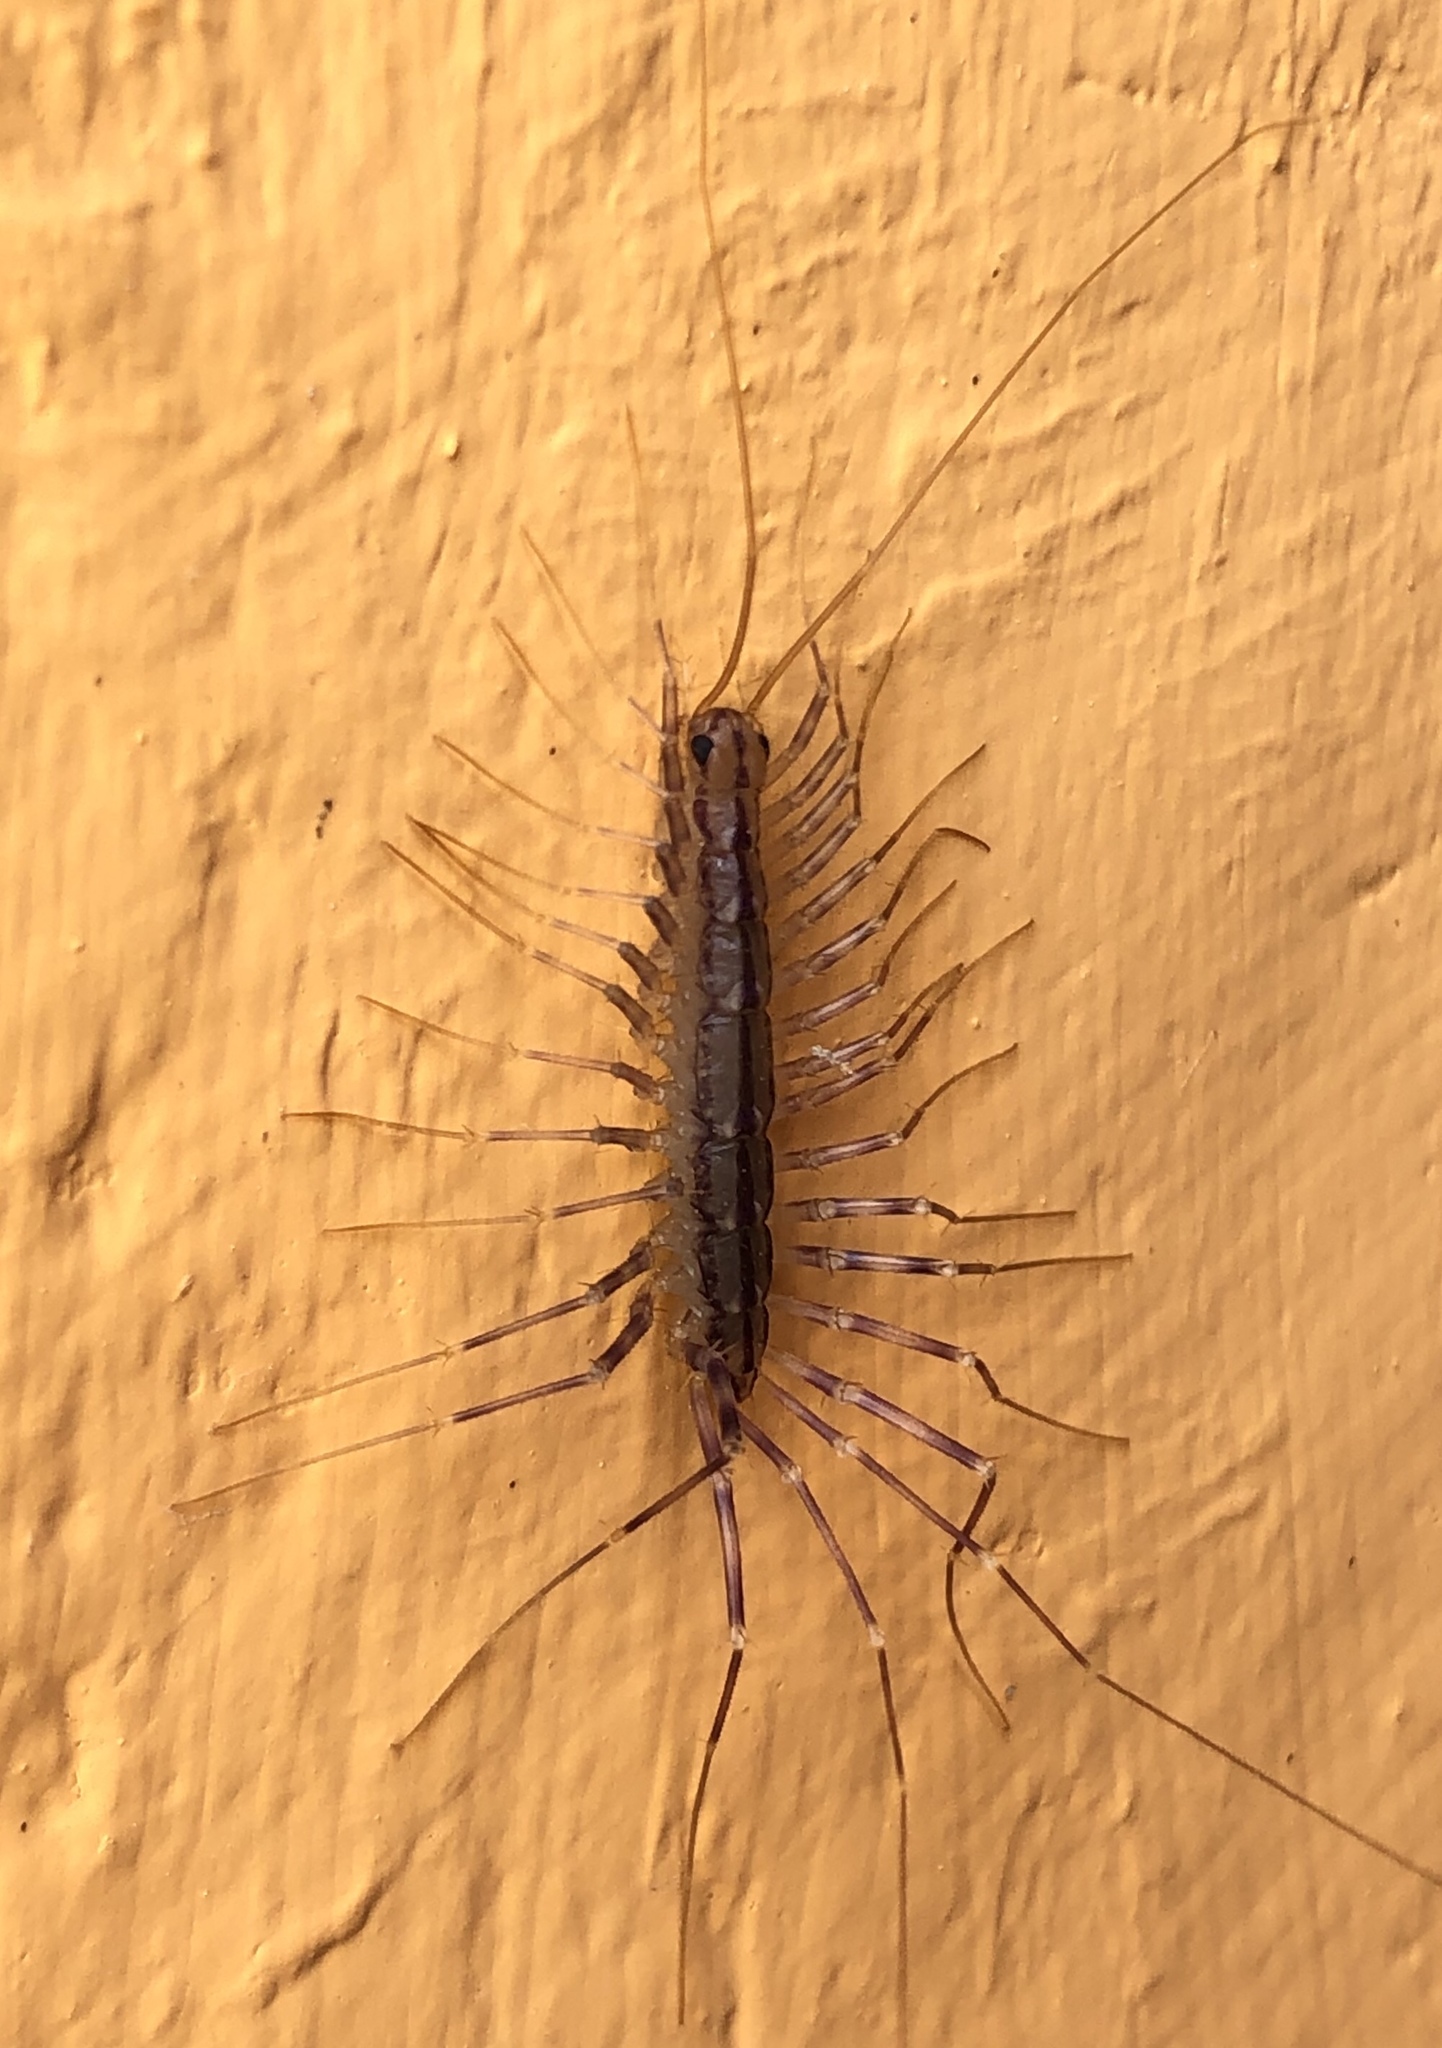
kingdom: Animalia
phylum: Arthropoda
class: Chilopoda
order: Scutigeromorpha
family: Scutigeridae
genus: Scutigera
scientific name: Scutigera coleoptrata
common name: House centipede
